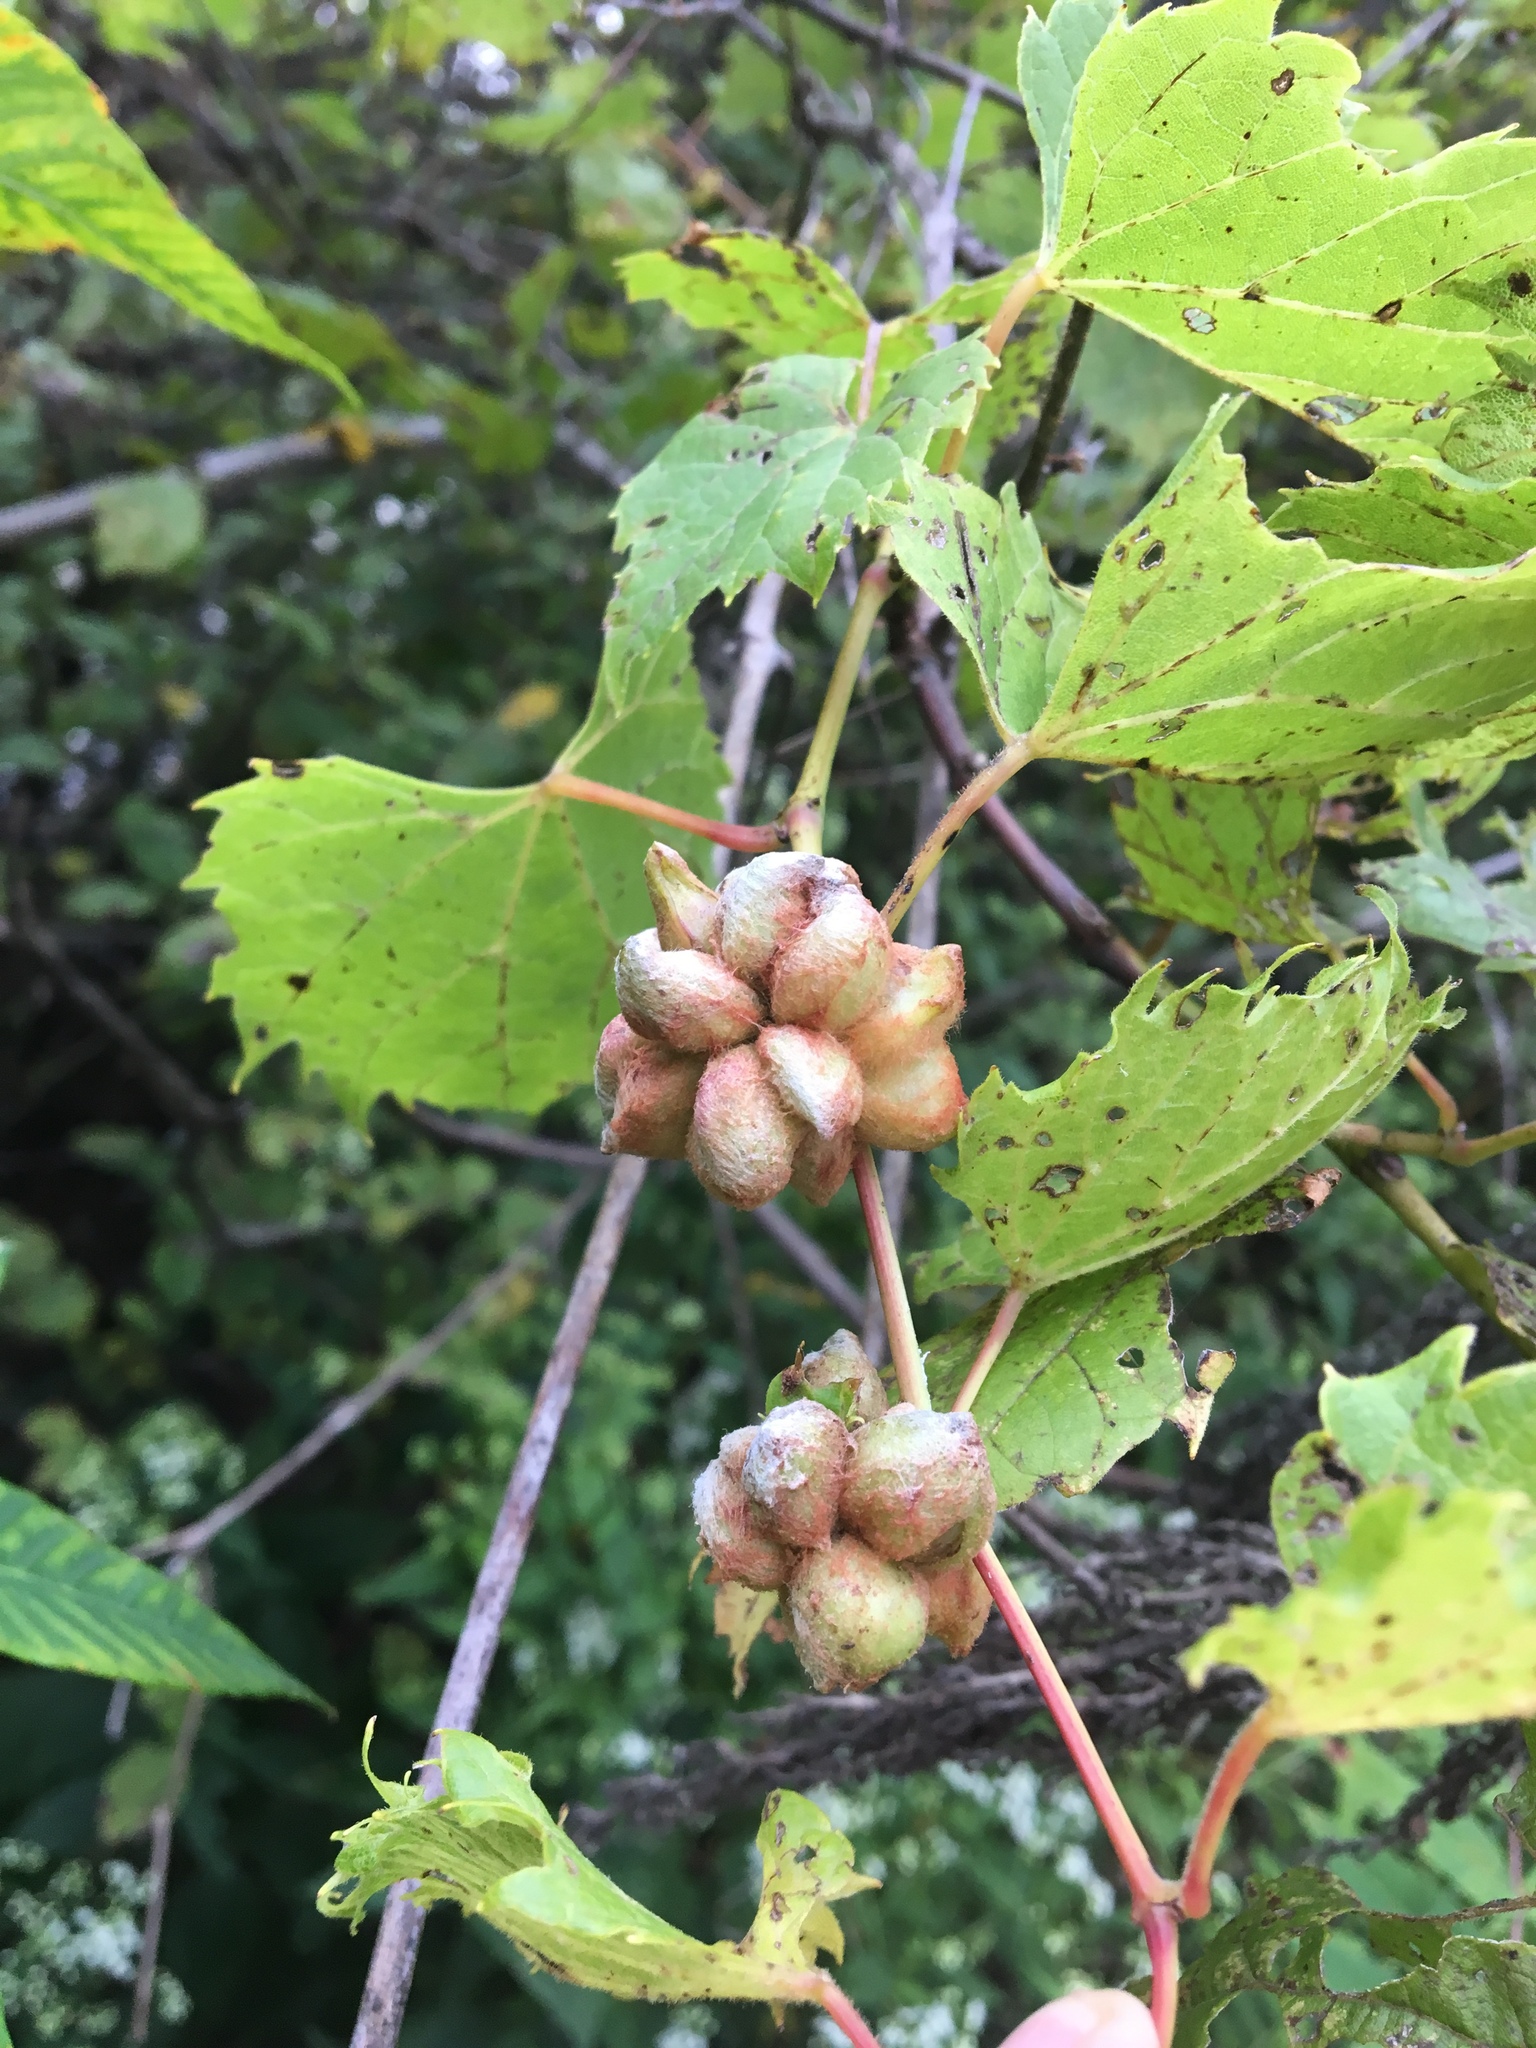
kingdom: Animalia
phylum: Arthropoda
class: Insecta
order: Diptera
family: Cecidomyiidae
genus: Ampelomyia
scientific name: Ampelomyia vitiscoryloides
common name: Grape filbert gall
